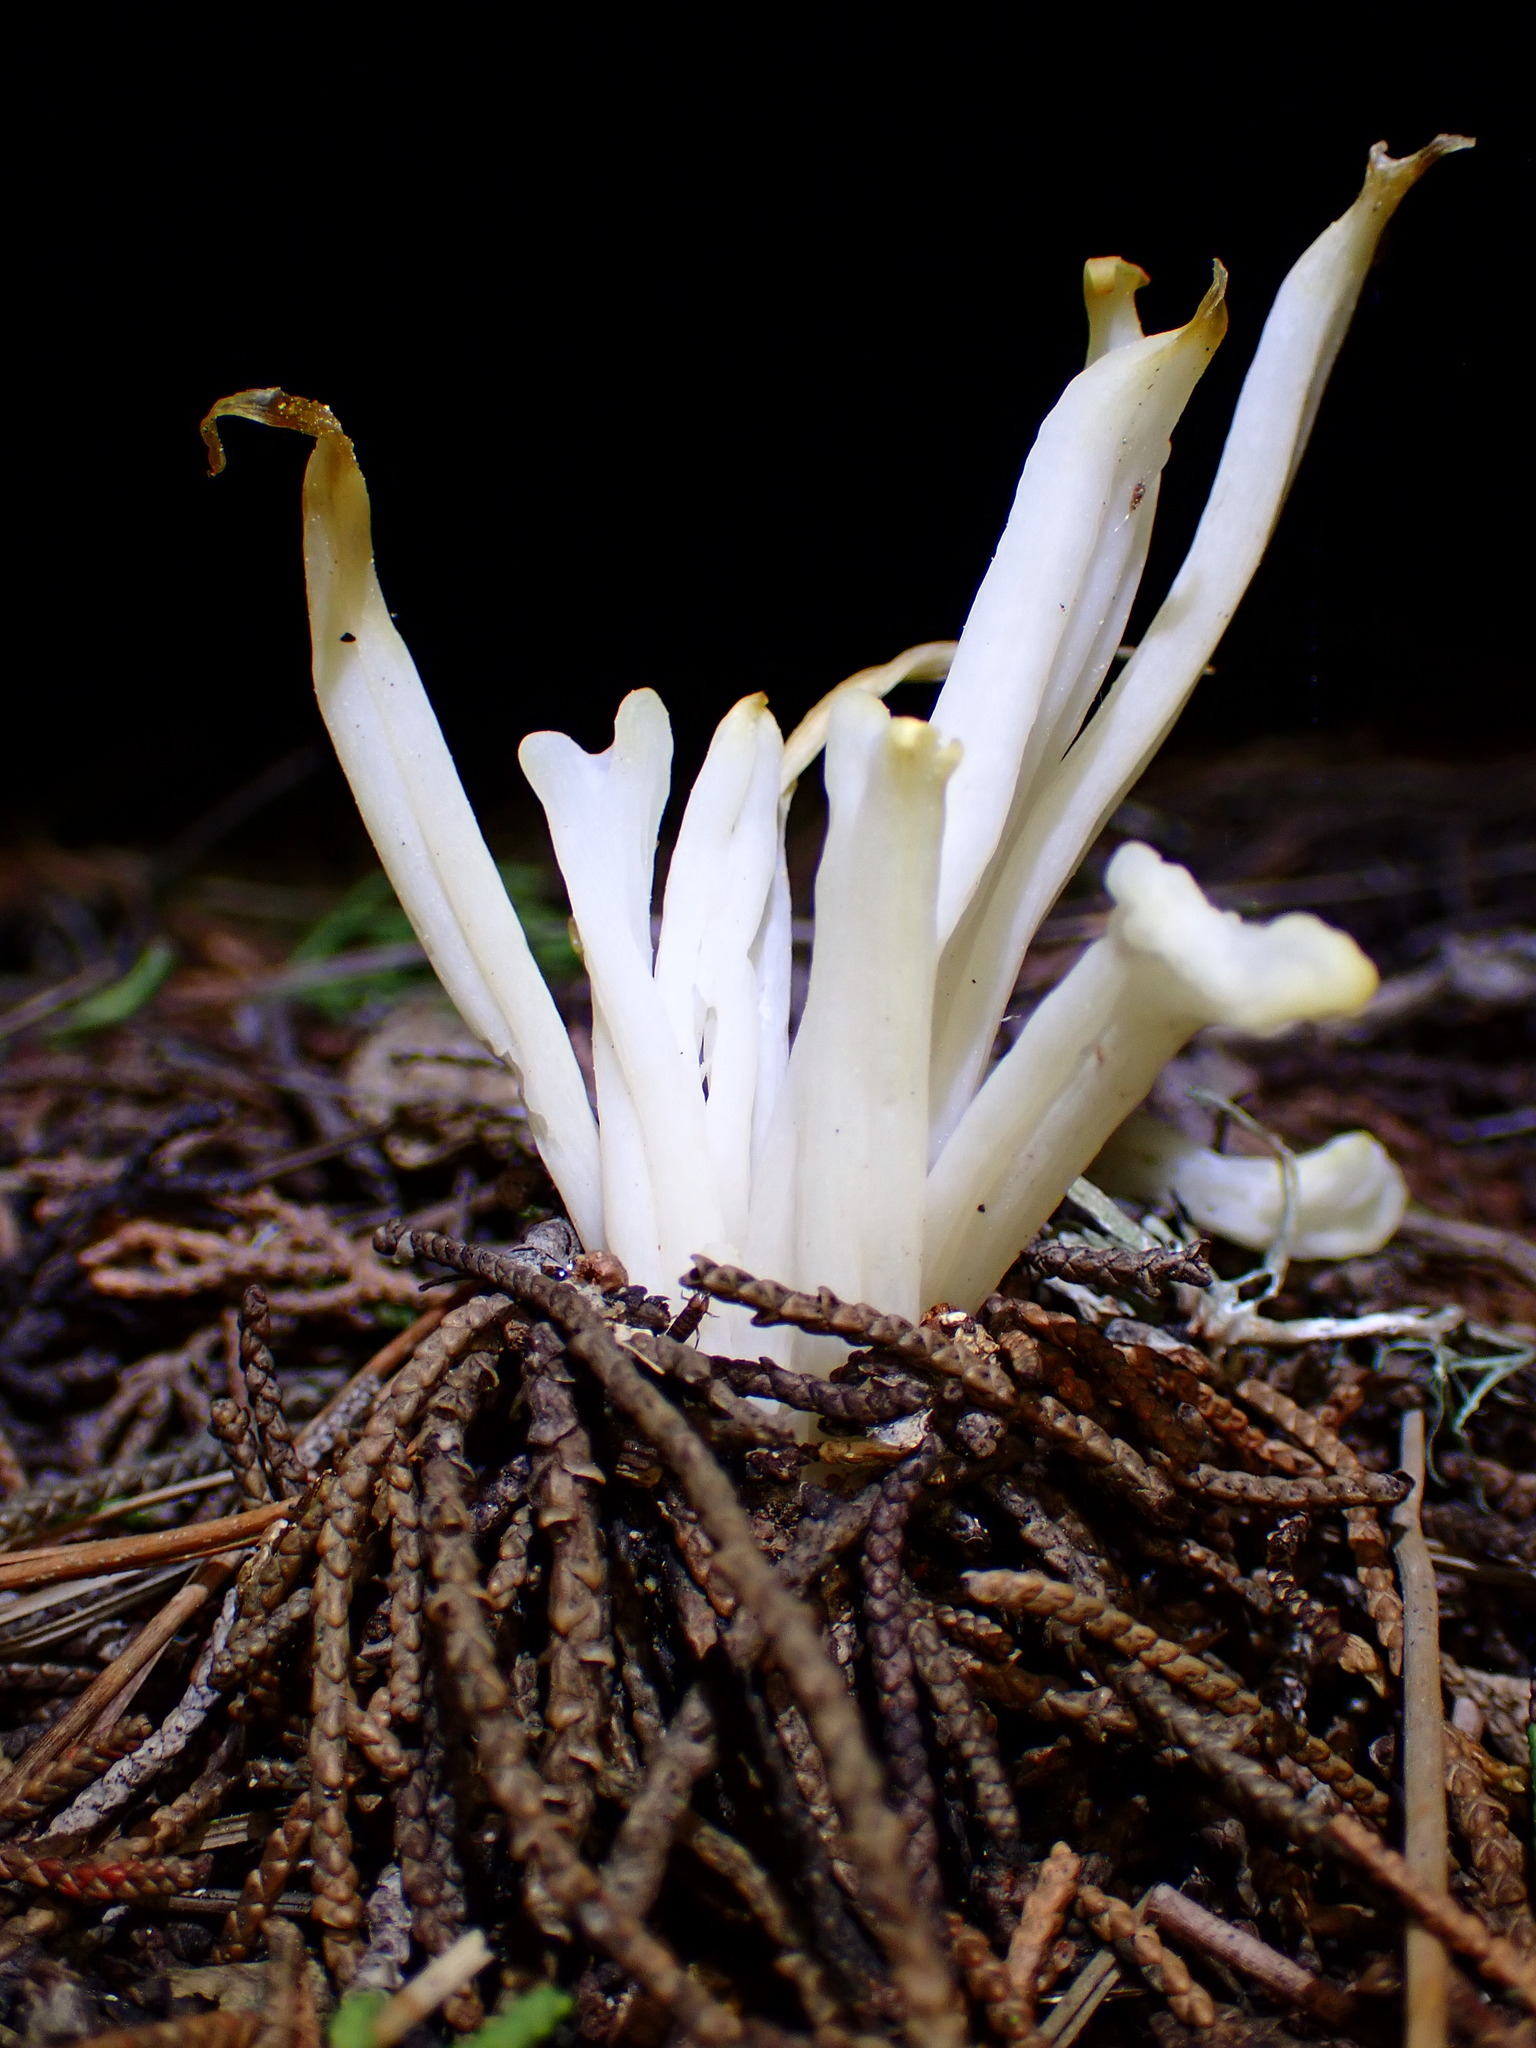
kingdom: Fungi
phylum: Basidiomycota
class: Agaricomycetes
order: Agaricales
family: Clavariaceae
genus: Clavaria
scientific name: Clavaria fragilis
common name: White spindles
